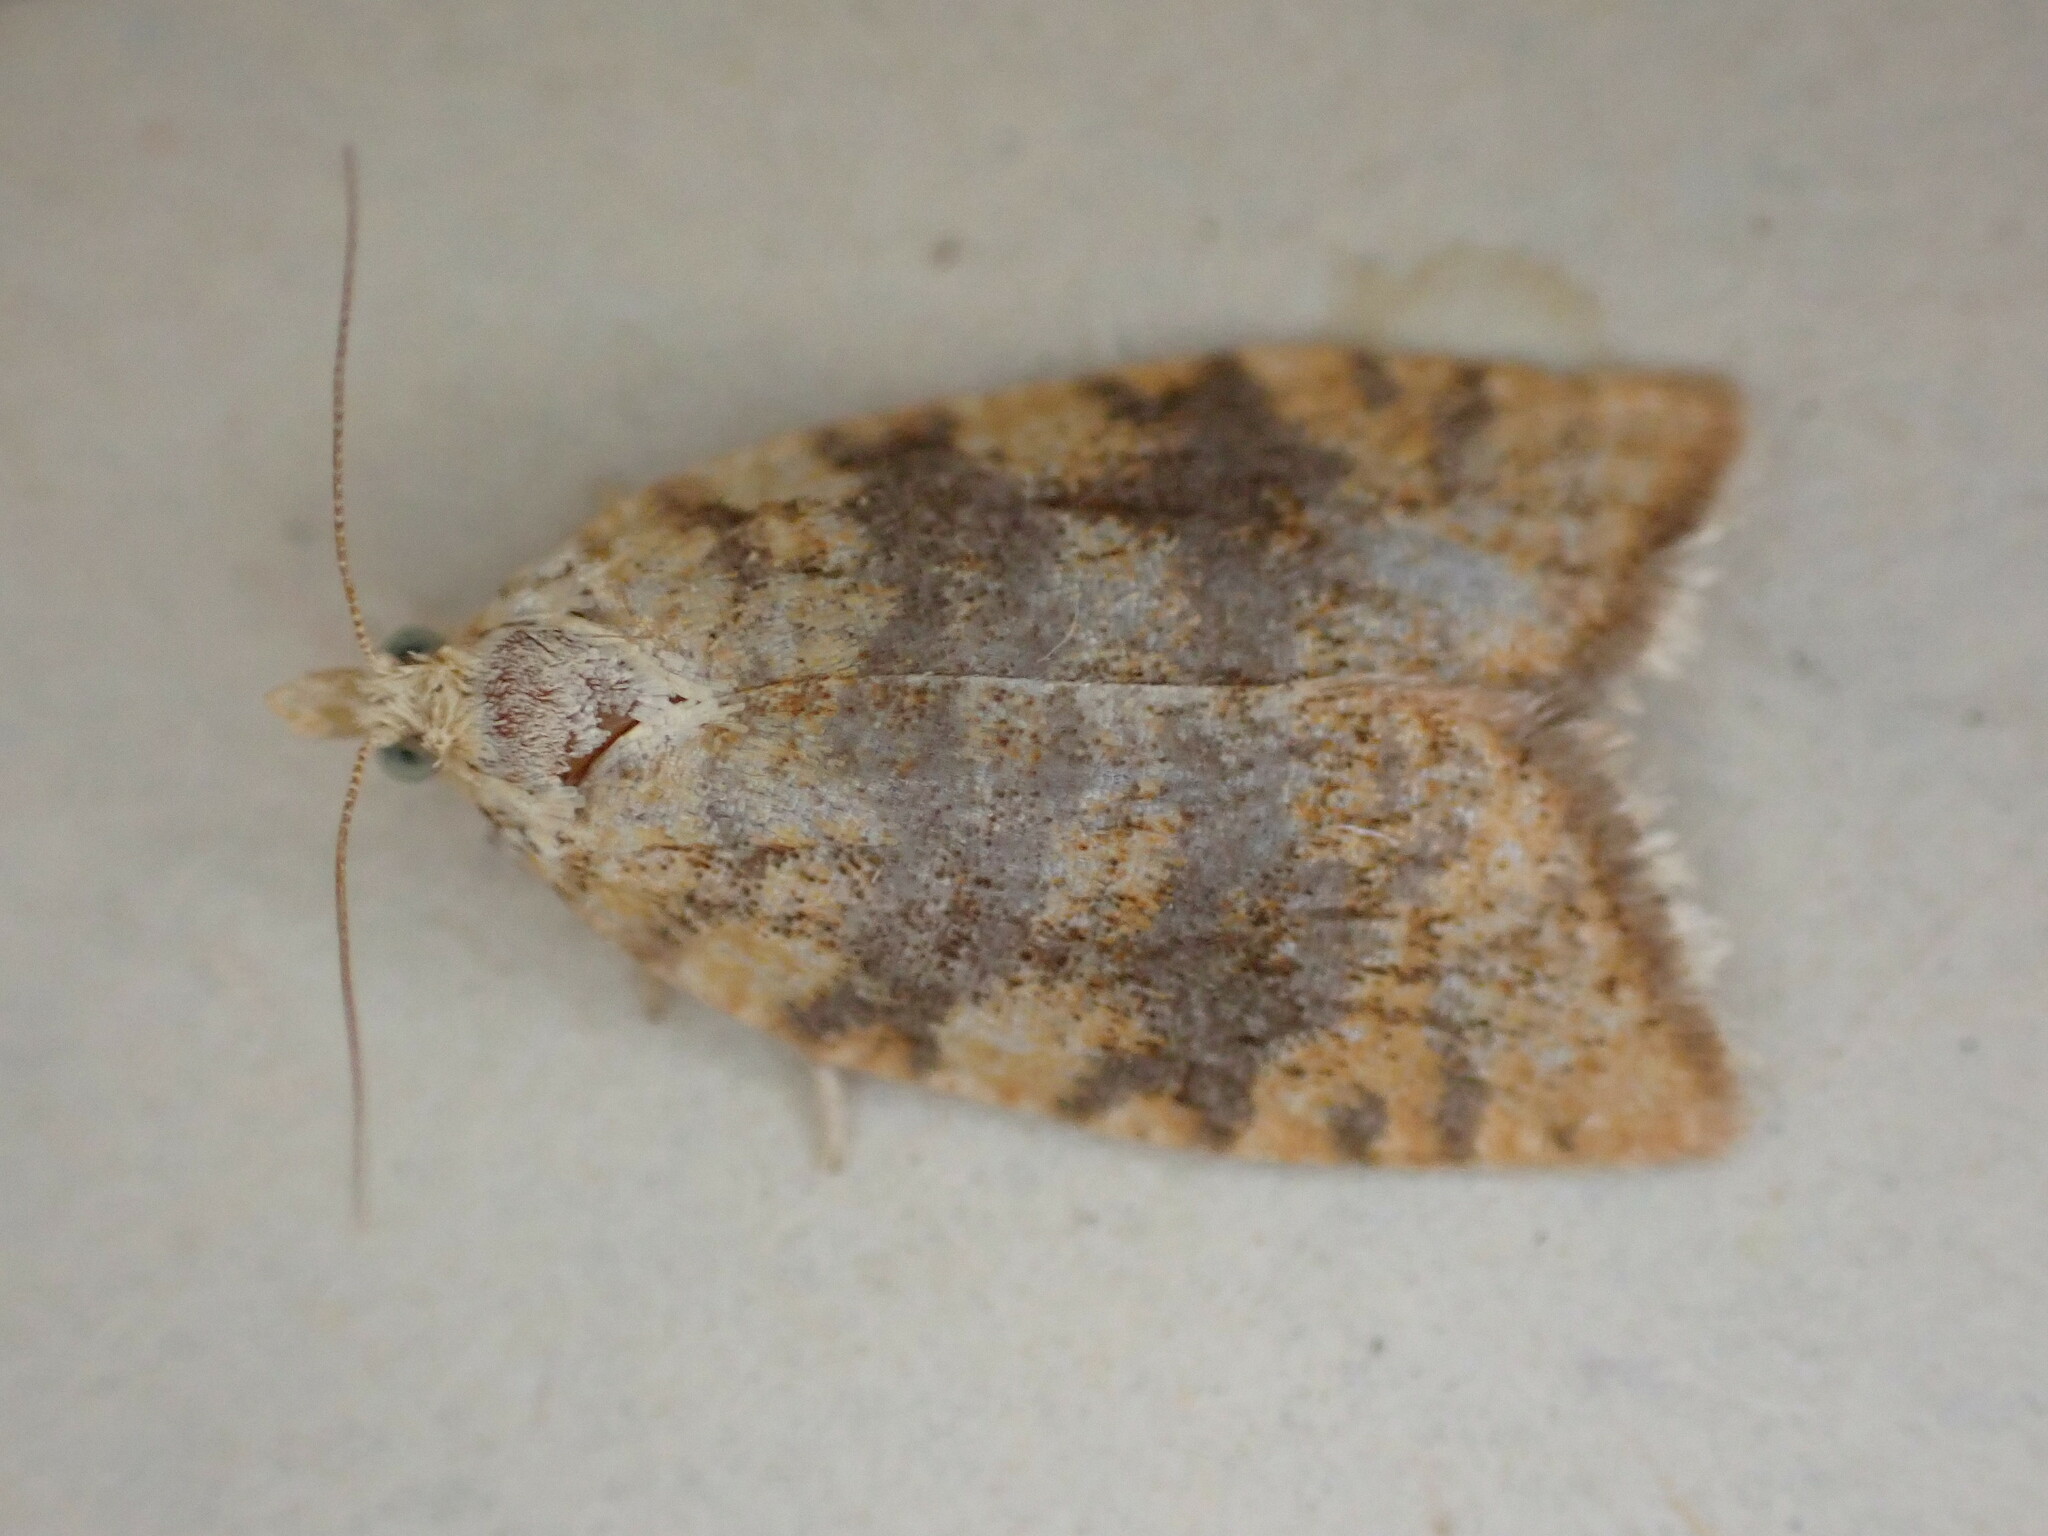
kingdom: Animalia
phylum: Arthropoda
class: Insecta
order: Lepidoptera
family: Tortricidae
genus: Aleimma
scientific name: Aleimma loeflingiana
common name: Yellow oak button
